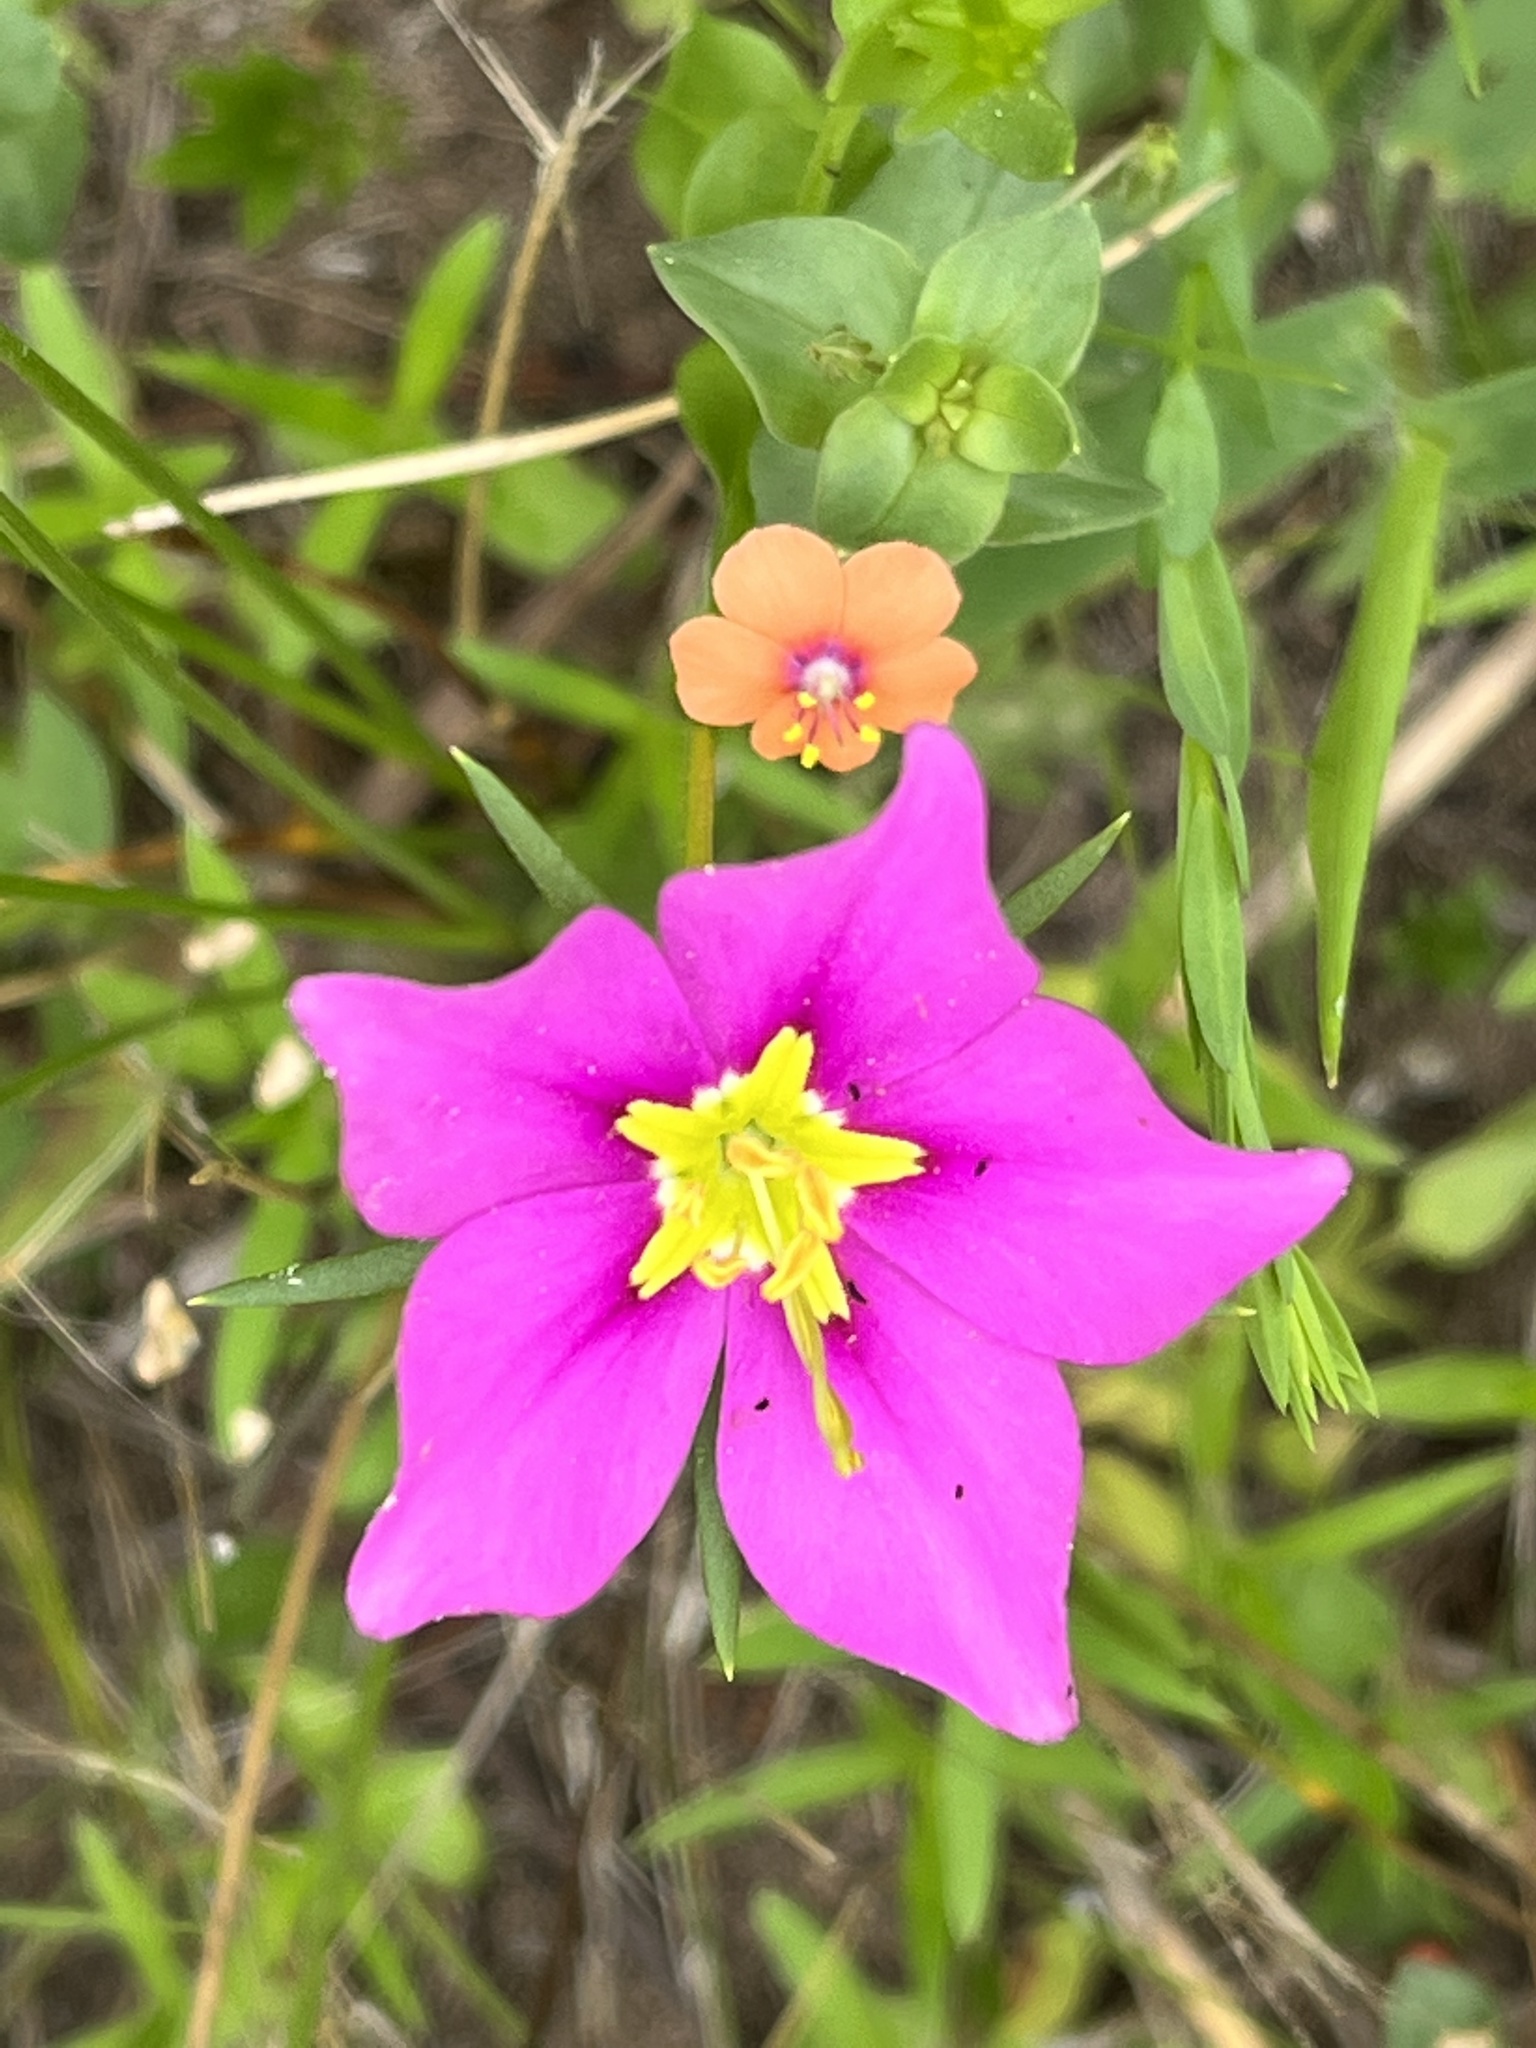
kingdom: Plantae
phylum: Tracheophyta
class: Magnoliopsida
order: Gentianales
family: Gentianaceae
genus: Sabatia
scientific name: Sabatia campestris
